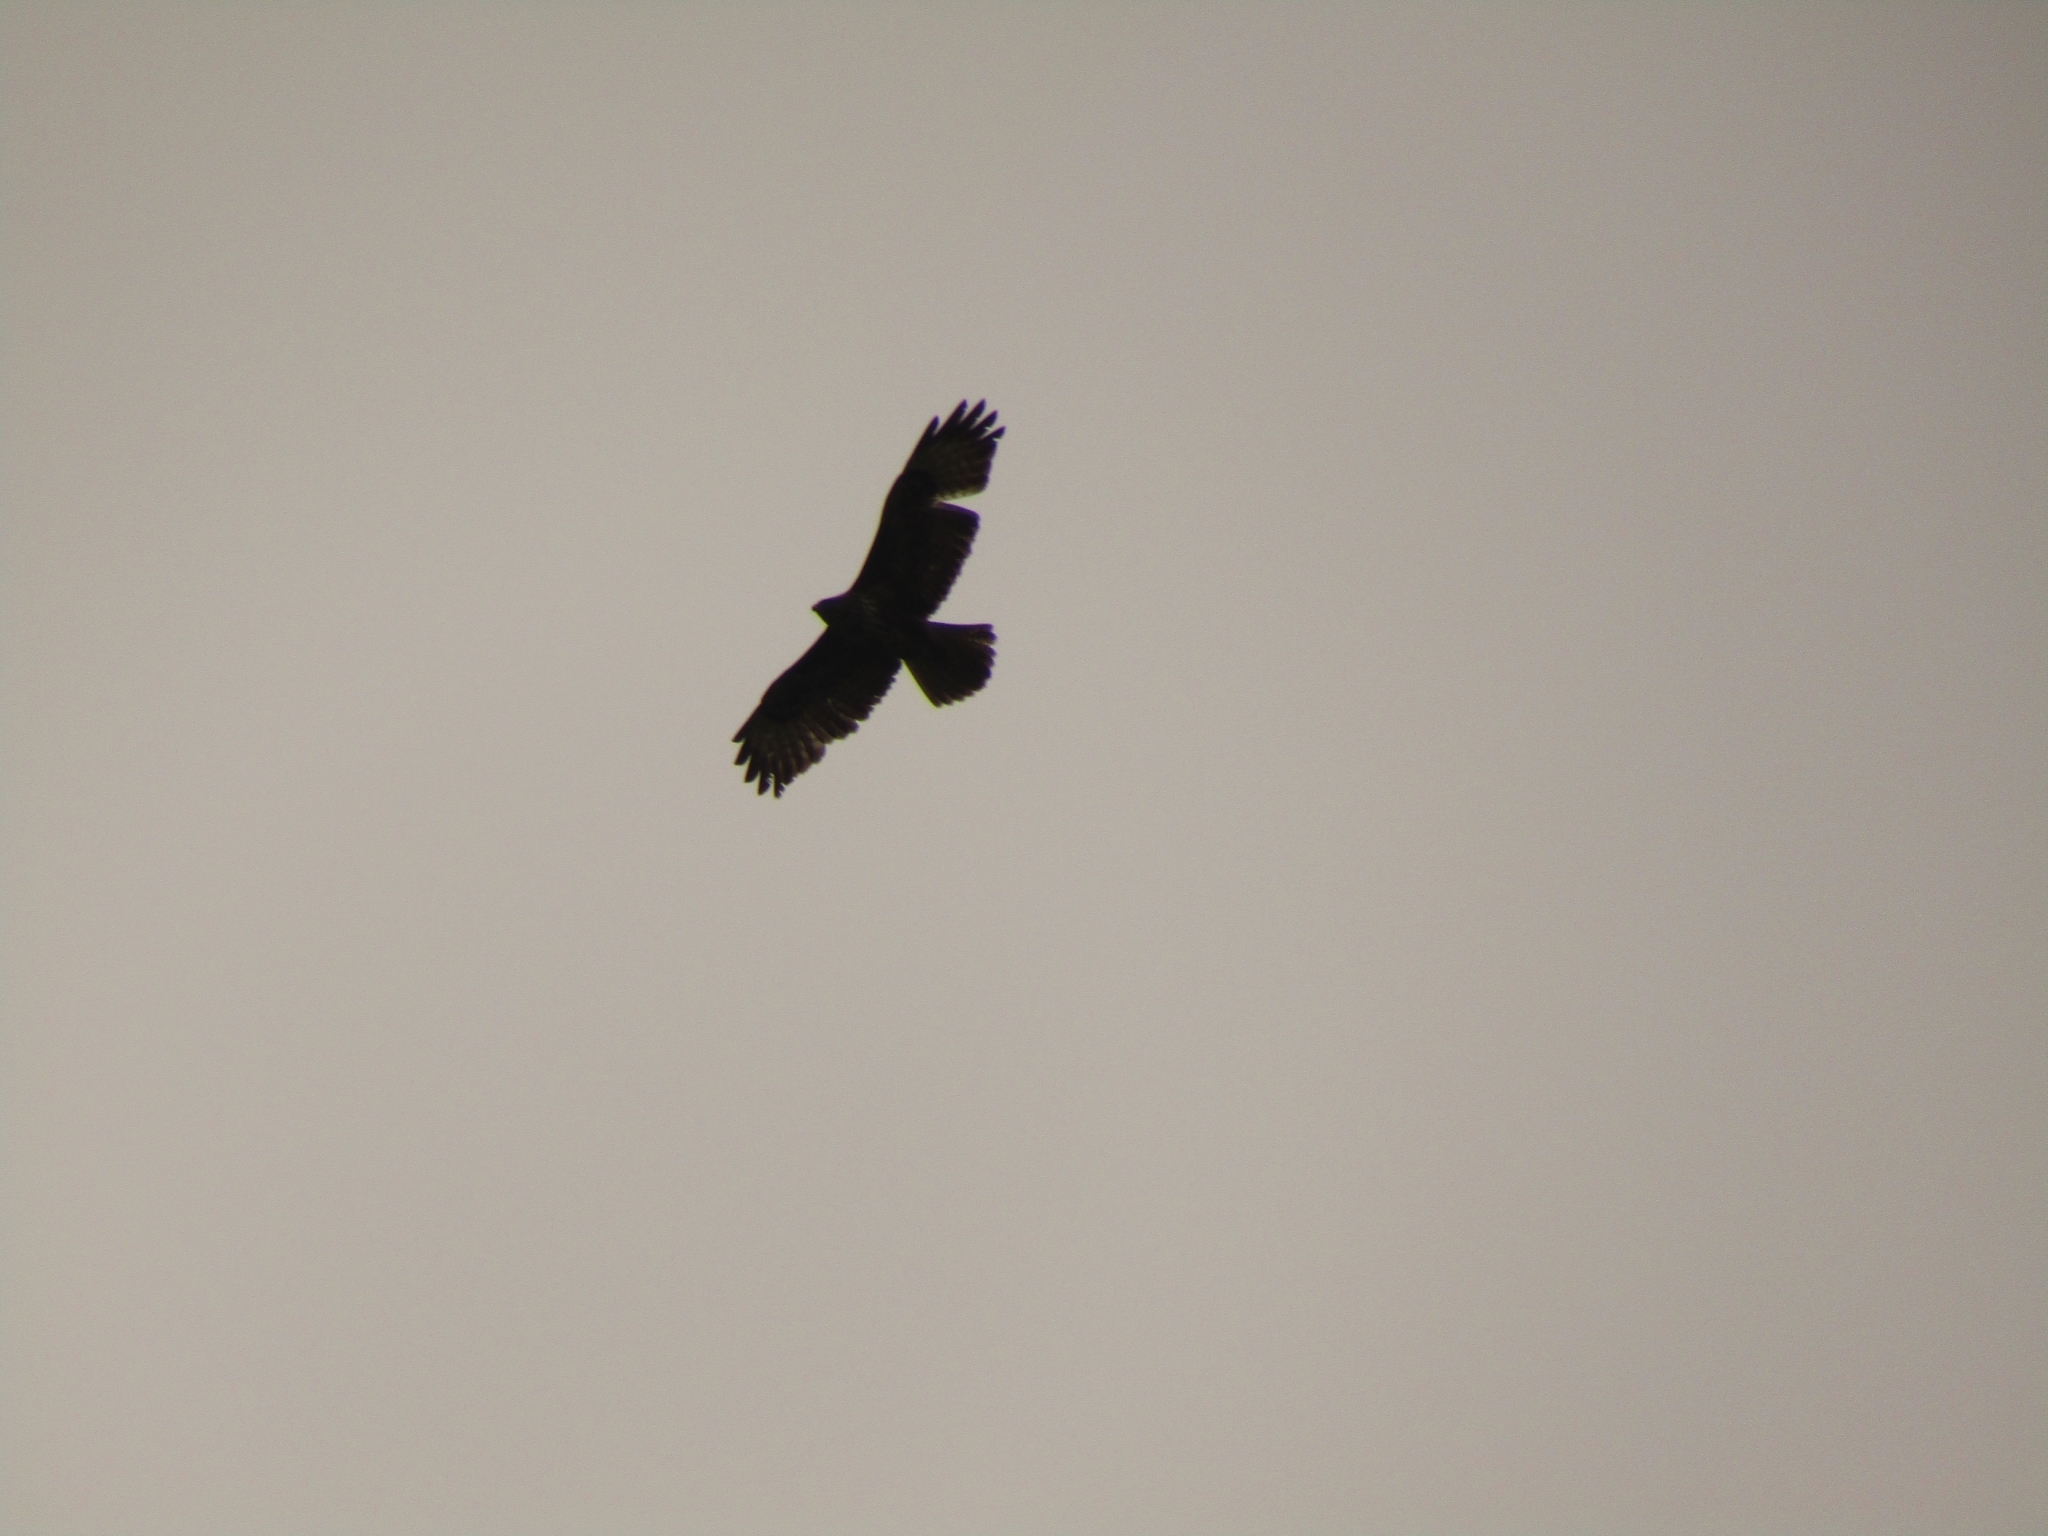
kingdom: Animalia
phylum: Chordata
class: Aves
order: Accipitriformes
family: Accipitridae
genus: Buteo
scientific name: Buteo buteo
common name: Common buzzard
